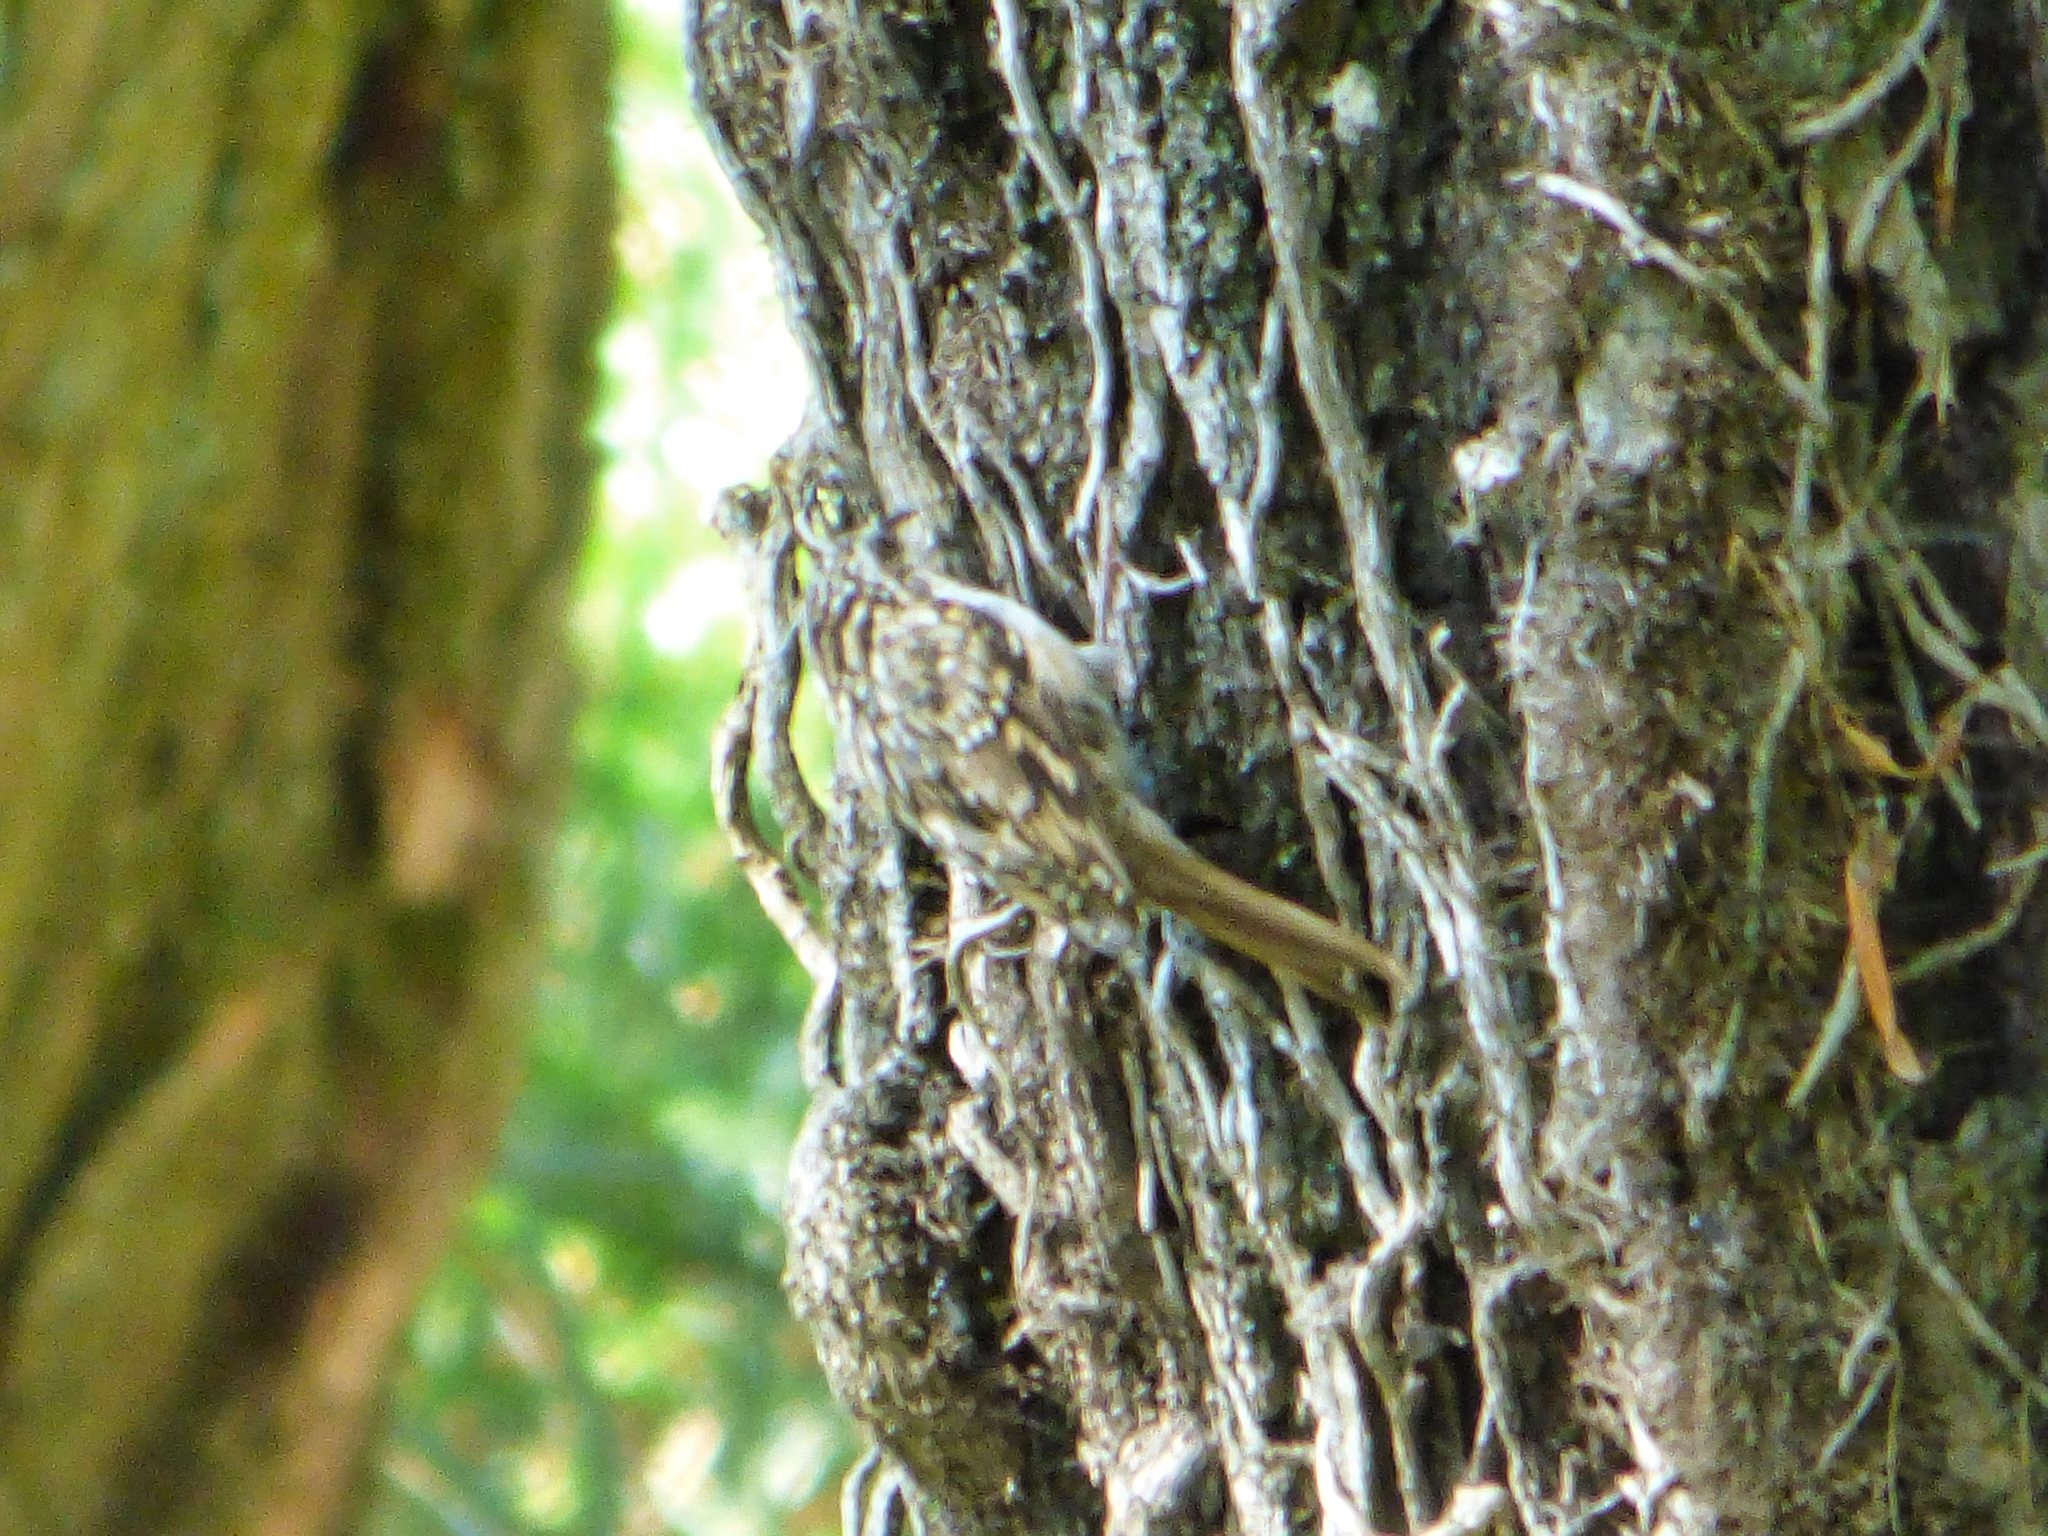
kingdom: Animalia
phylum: Chordata
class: Aves
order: Passeriformes
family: Certhiidae
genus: Certhia
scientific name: Certhia brachydactyla
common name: Short-toed treecreeper
